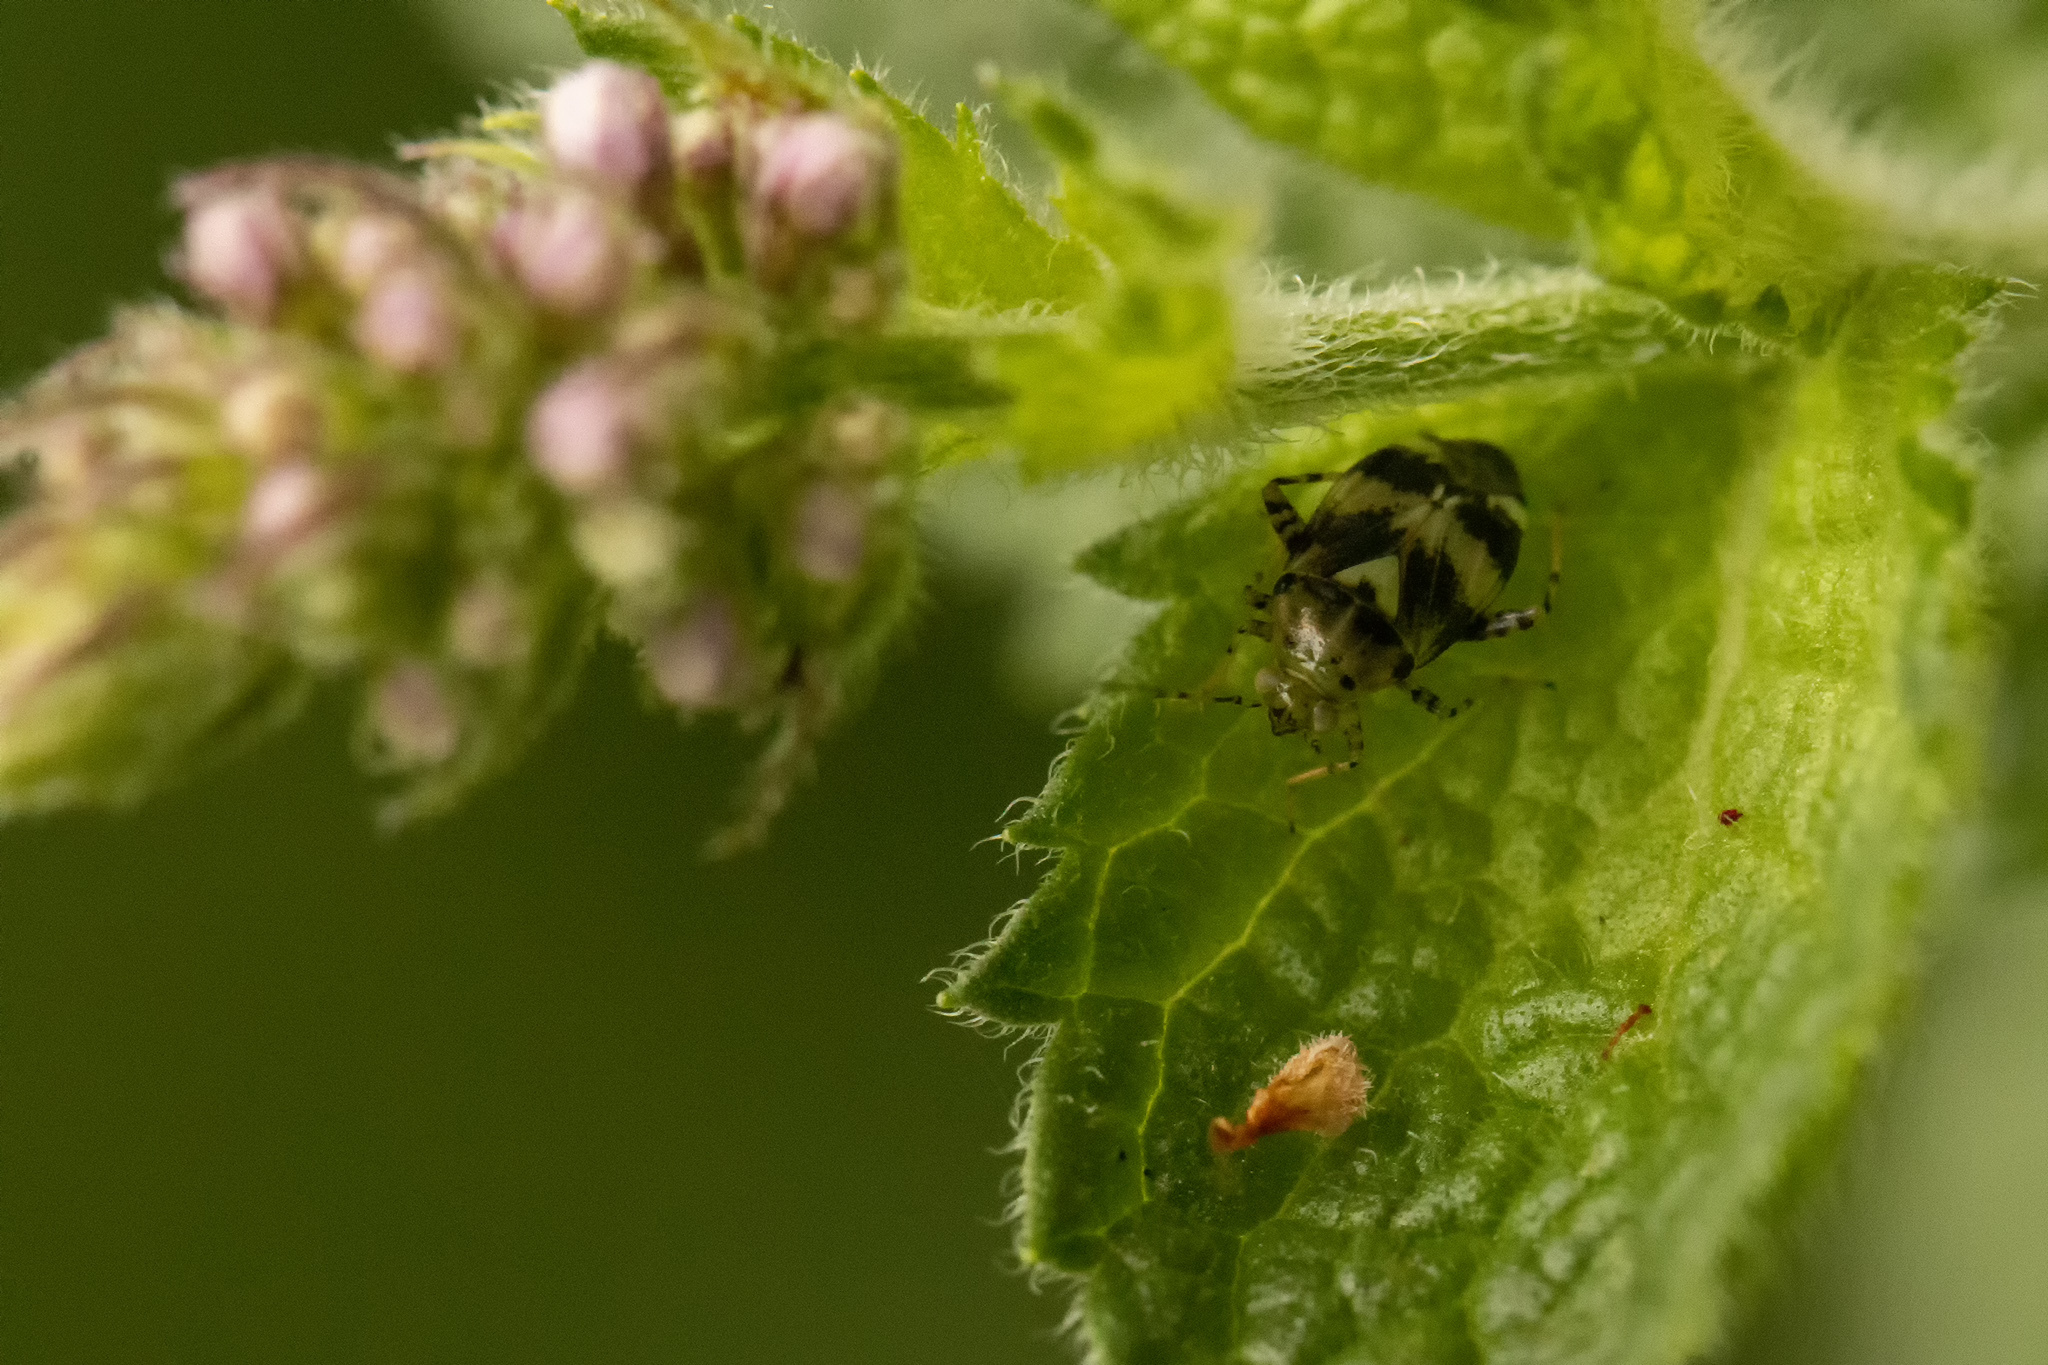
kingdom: Animalia
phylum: Arthropoda
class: Insecta
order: Hemiptera
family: Miridae
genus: Liocoris
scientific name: Liocoris tripustulatus
